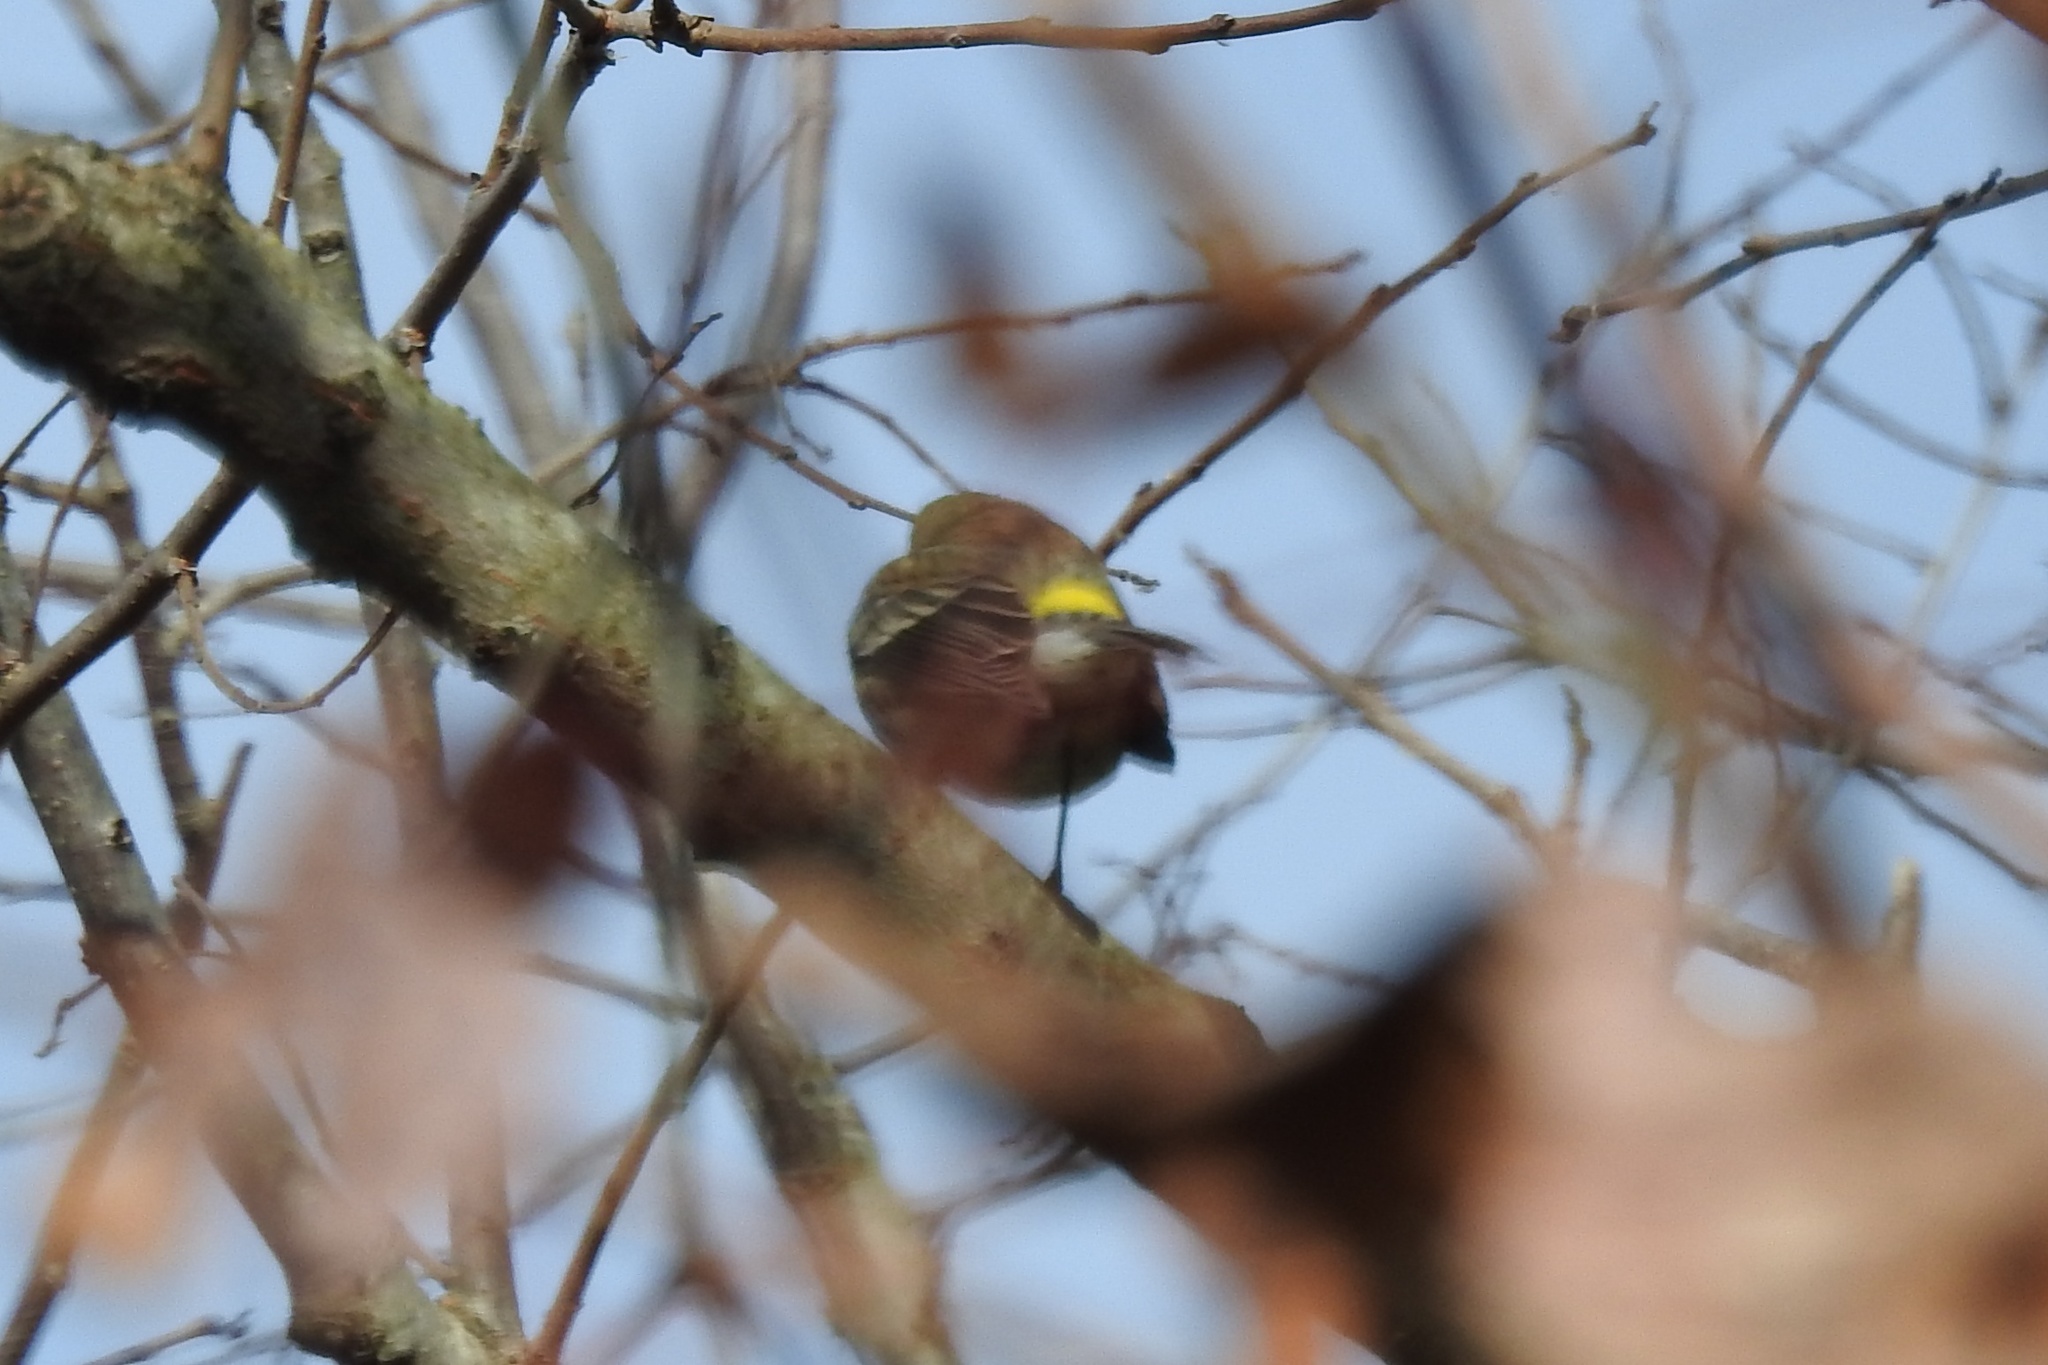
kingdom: Animalia
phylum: Chordata
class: Aves
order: Passeriformes
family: Parulidae
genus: Setophaga
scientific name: Setophaga coronata
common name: Myrtle warbler
